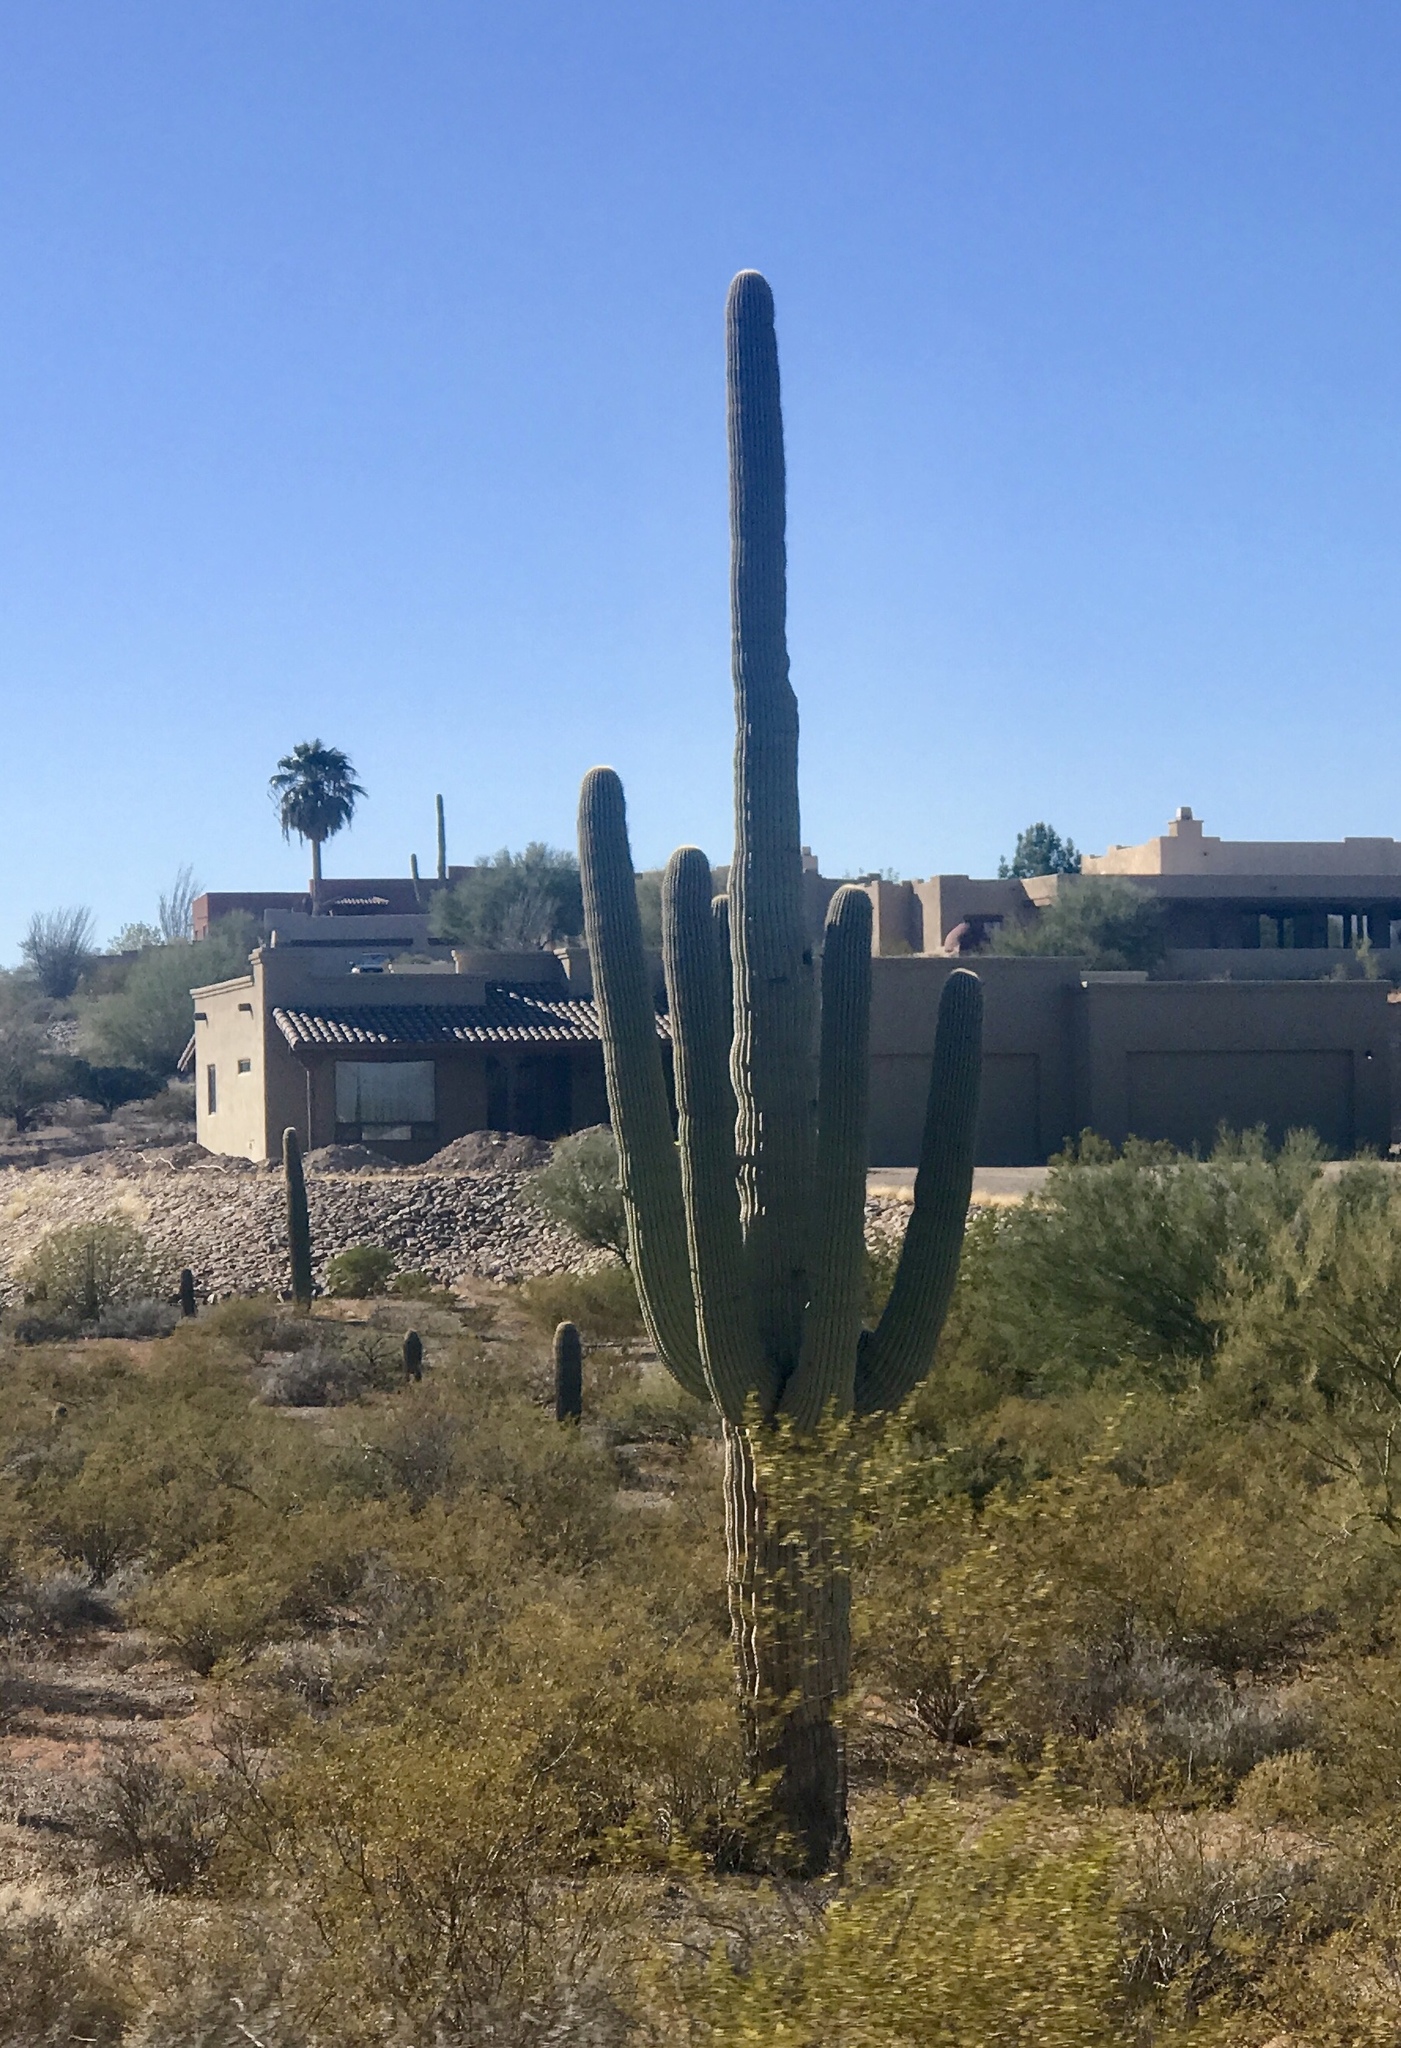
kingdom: Plantae
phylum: Tracheophyta
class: Magnoliopsida
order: Caryophyllales
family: Cactaceae
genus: Carnegiea
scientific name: Carnegiea gigantea
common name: Saguaro
